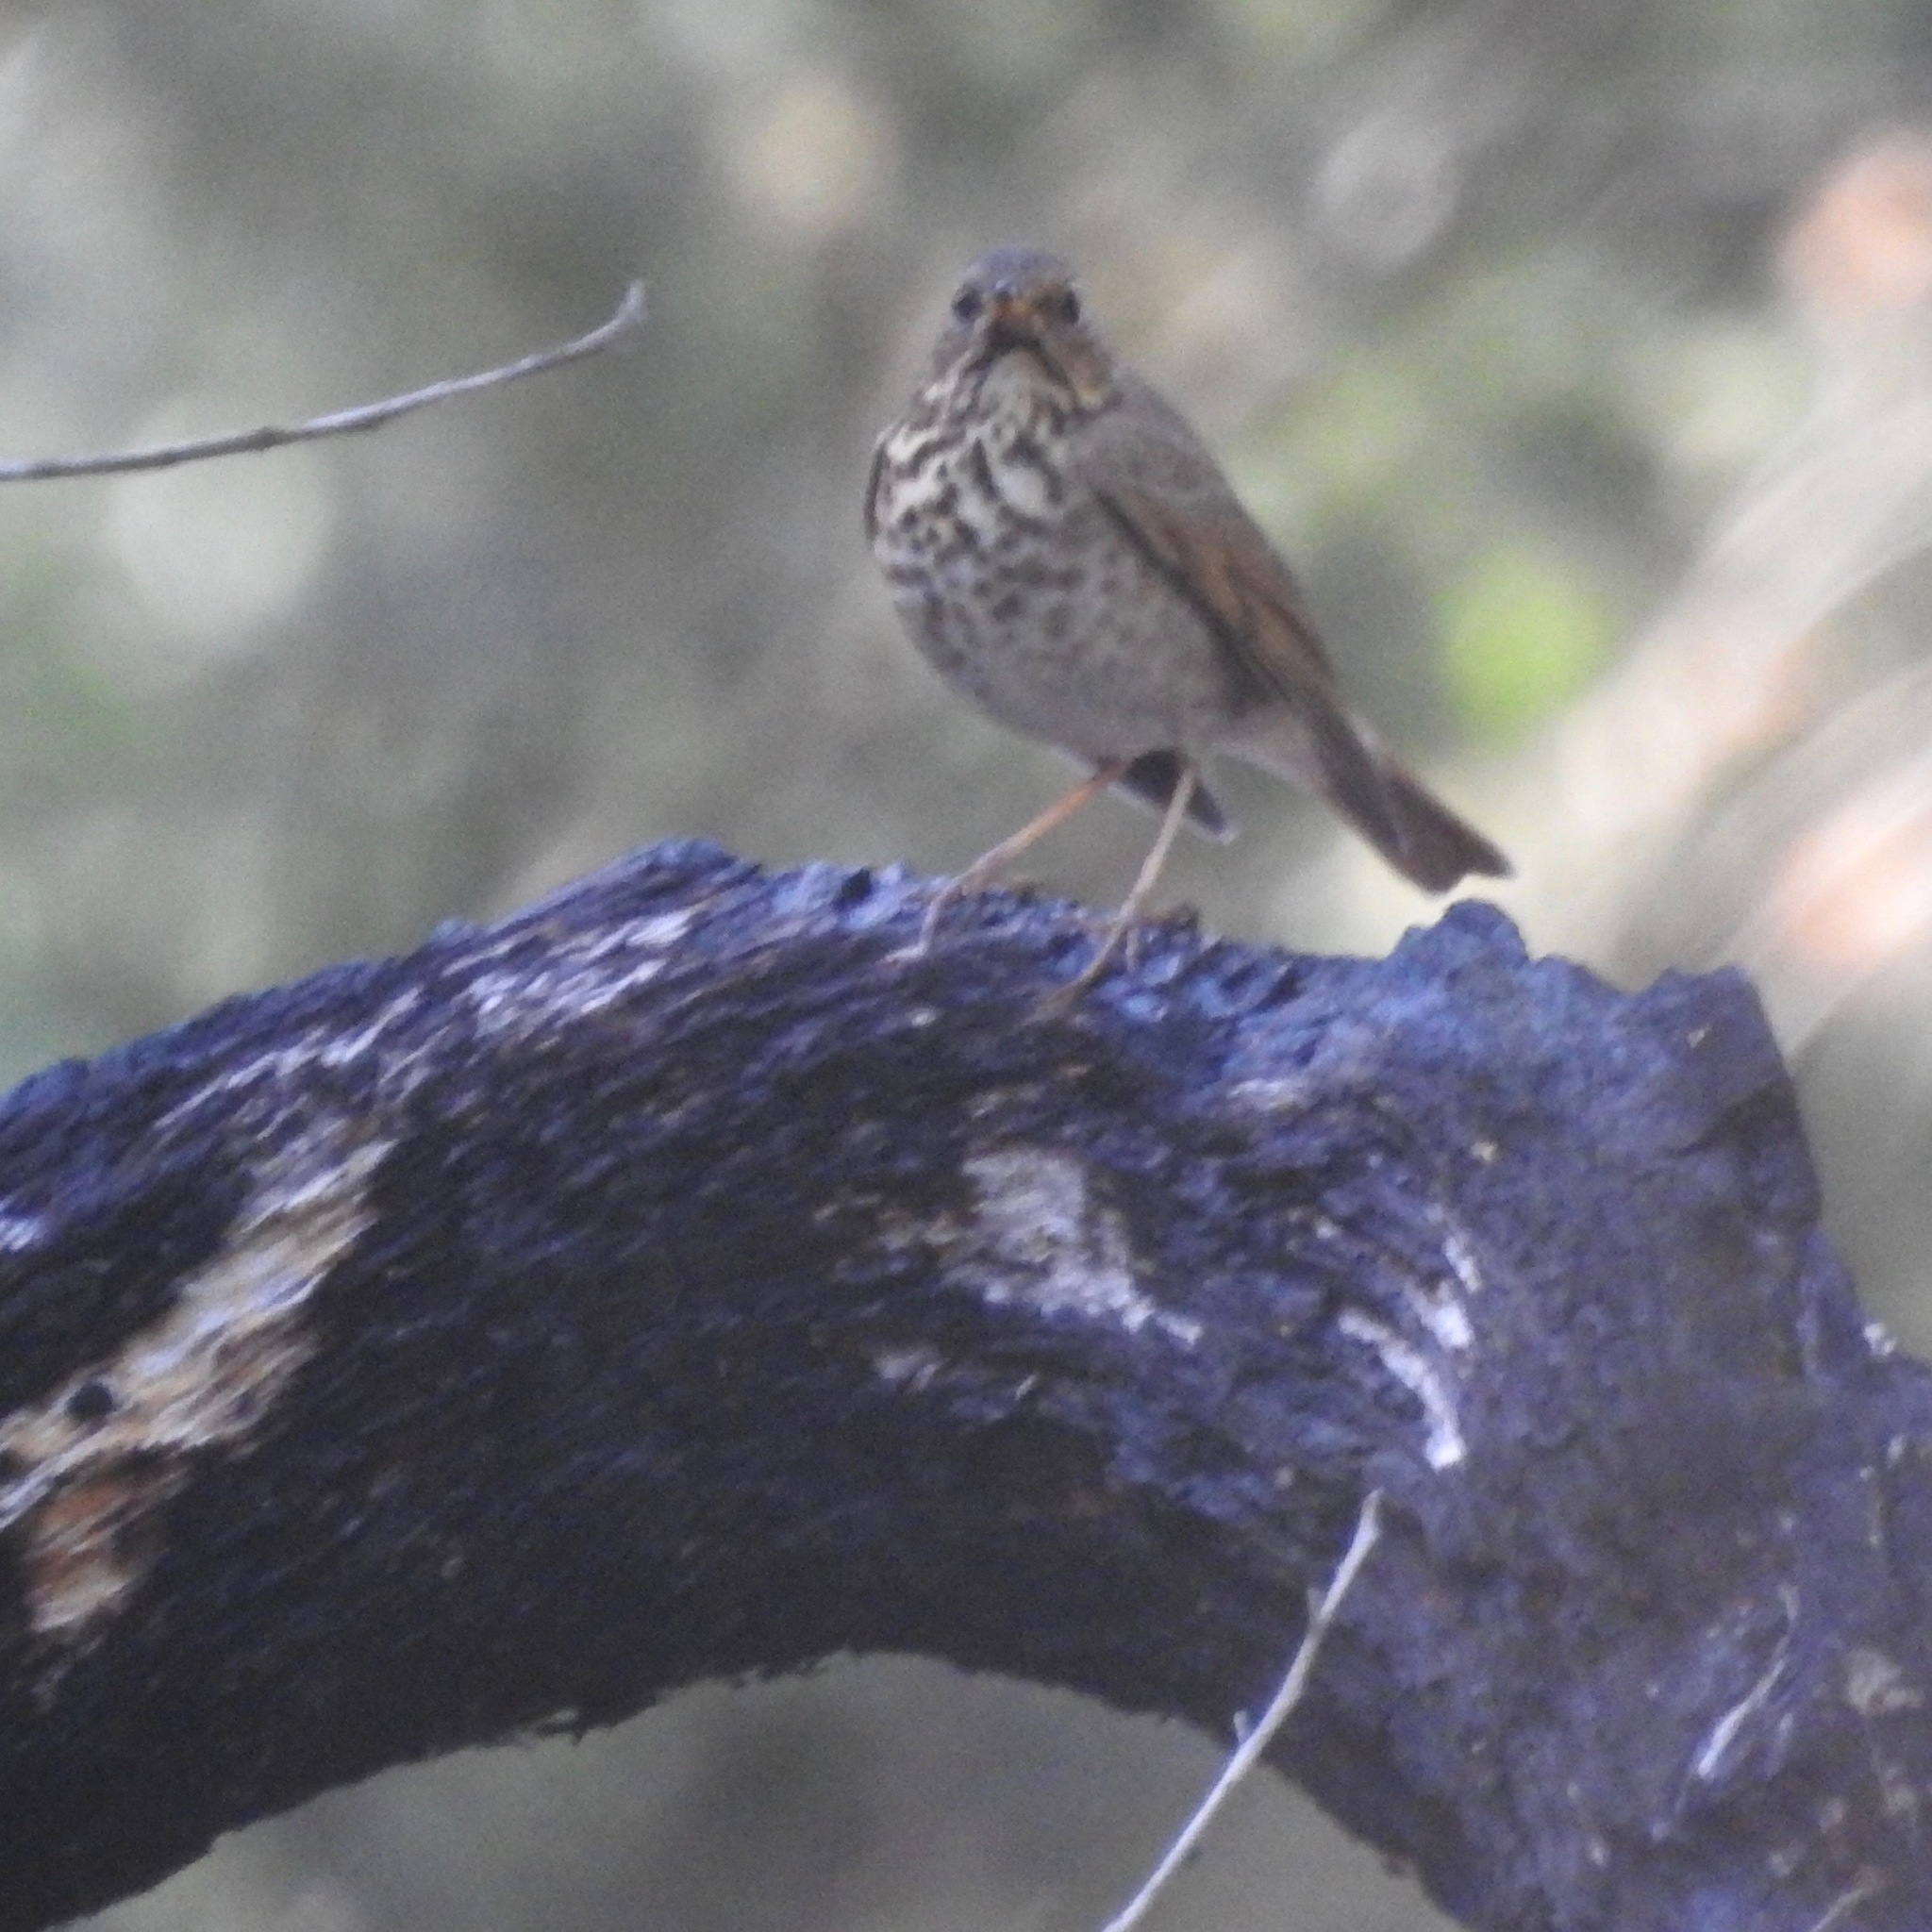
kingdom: Animalia
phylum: Chordata
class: Aves
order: Passeriformes
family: Turdidae
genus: Catharus
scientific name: Catharus guttatus
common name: Hermit thrush
